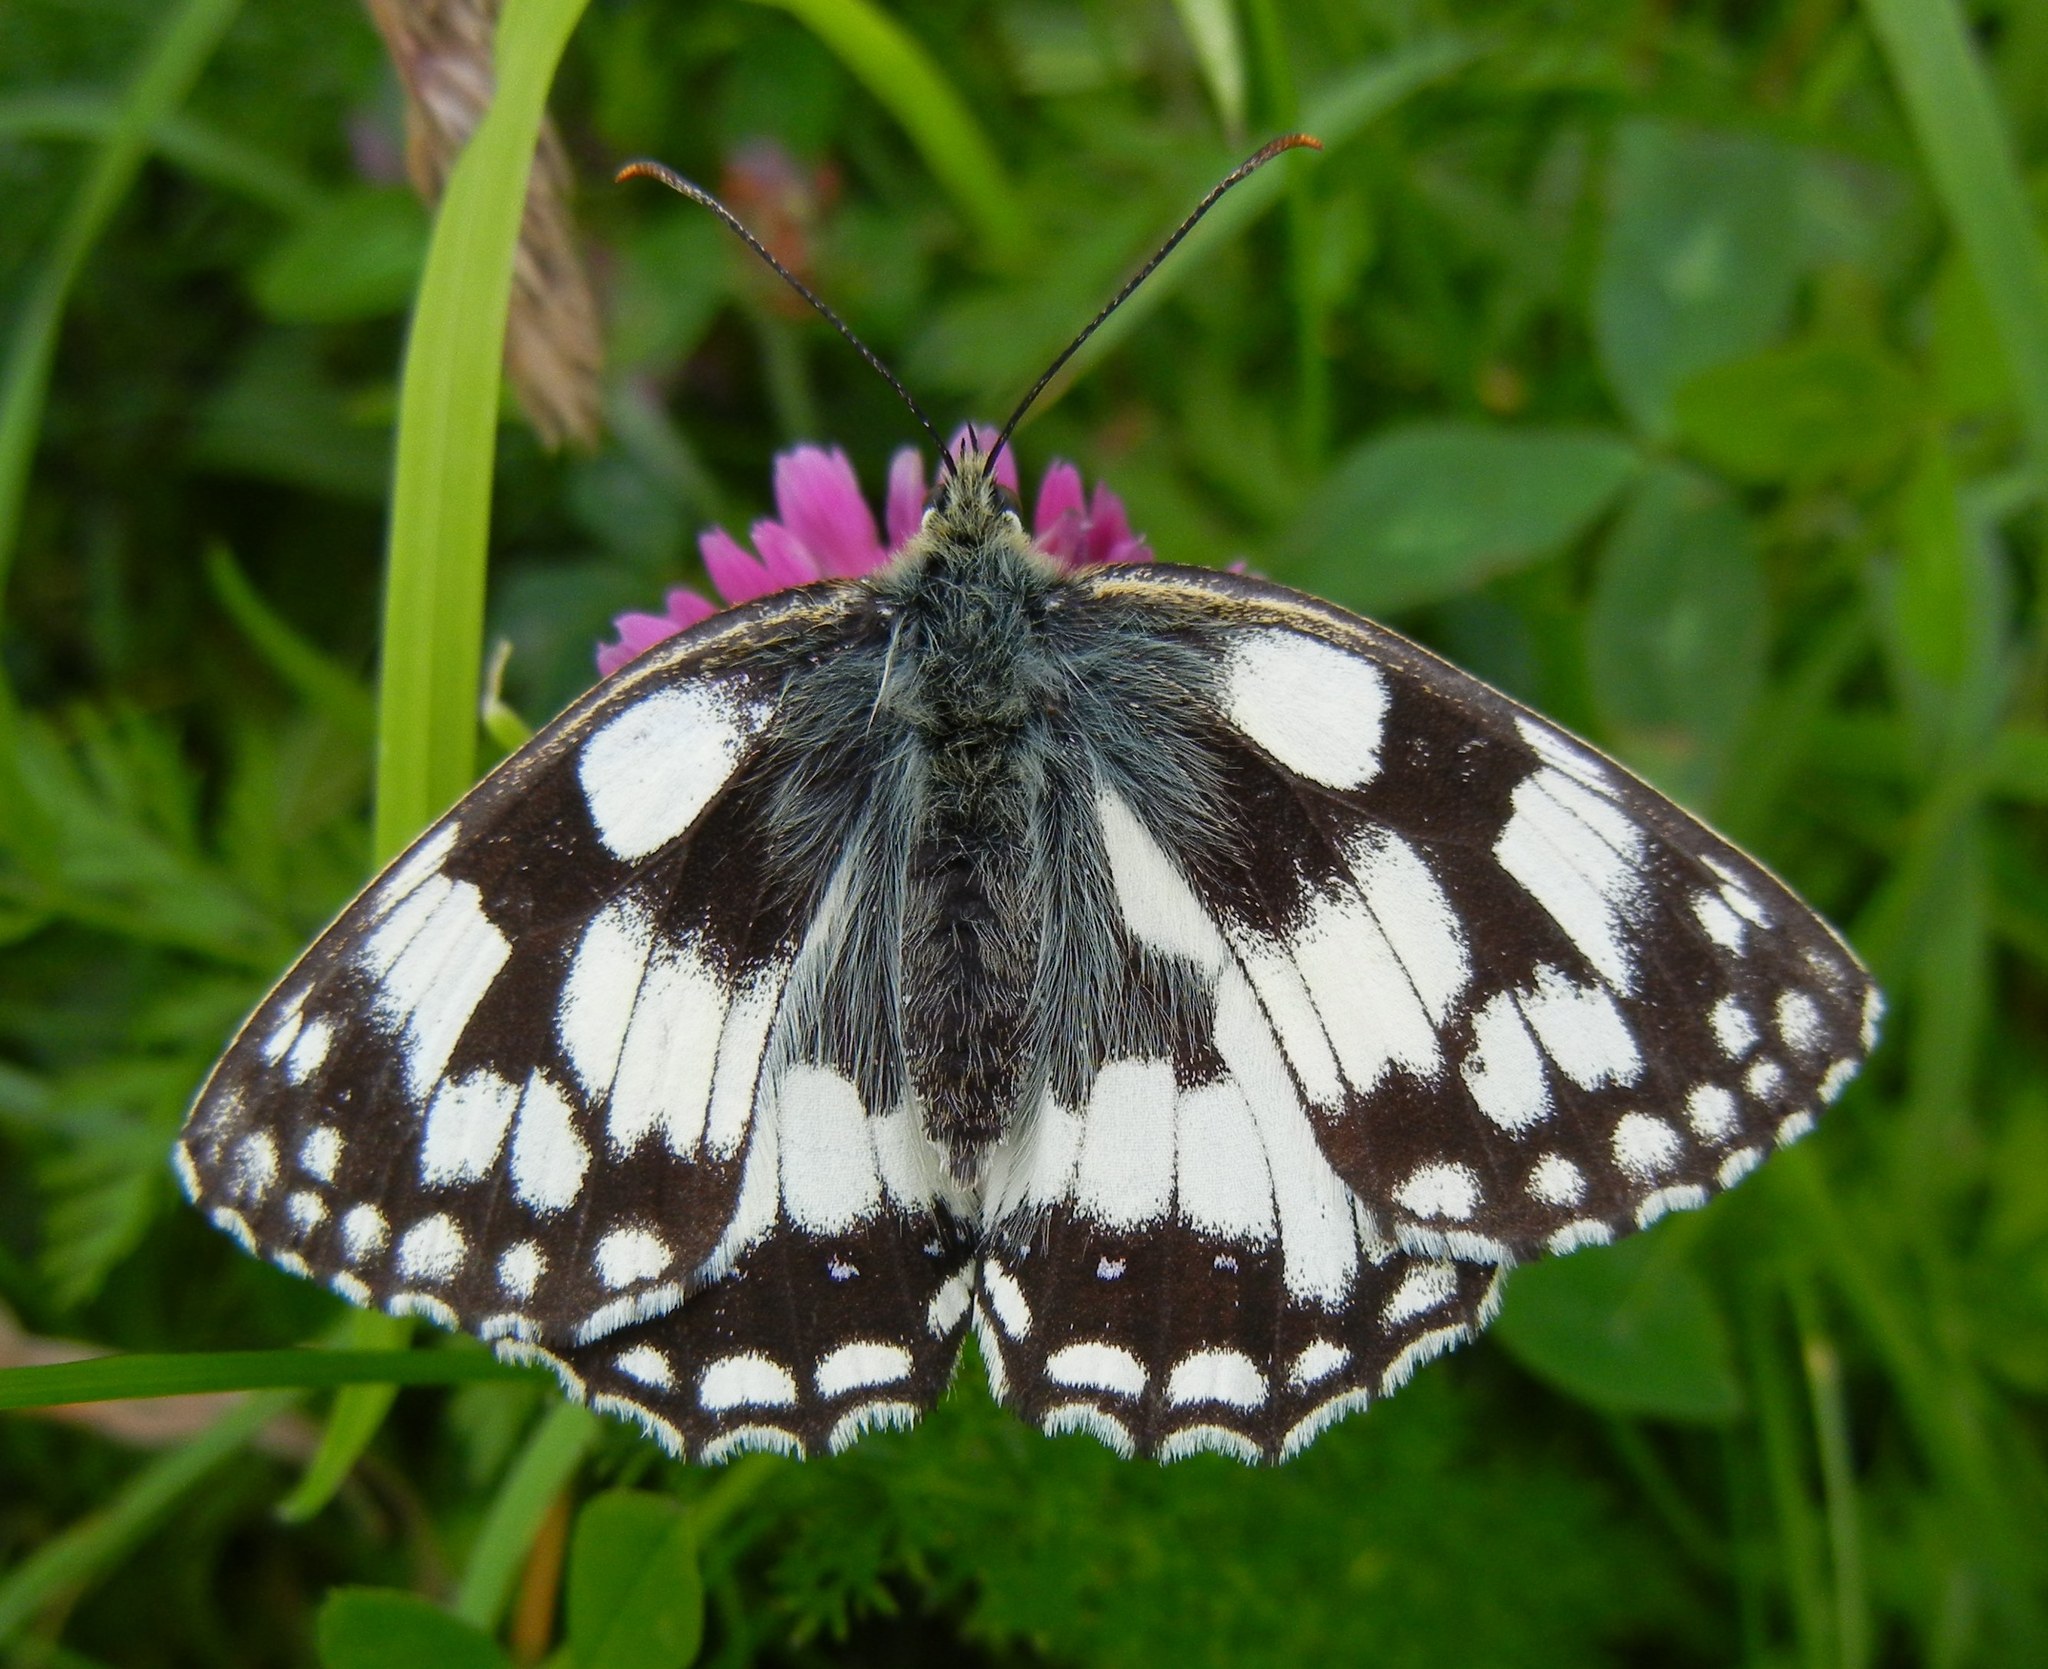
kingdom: Animalia
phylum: Arthropoda
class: Insecta
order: Lepidoptera
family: Nymphalidae
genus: Melanargia
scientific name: Melanargia galathea
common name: Marbled white
